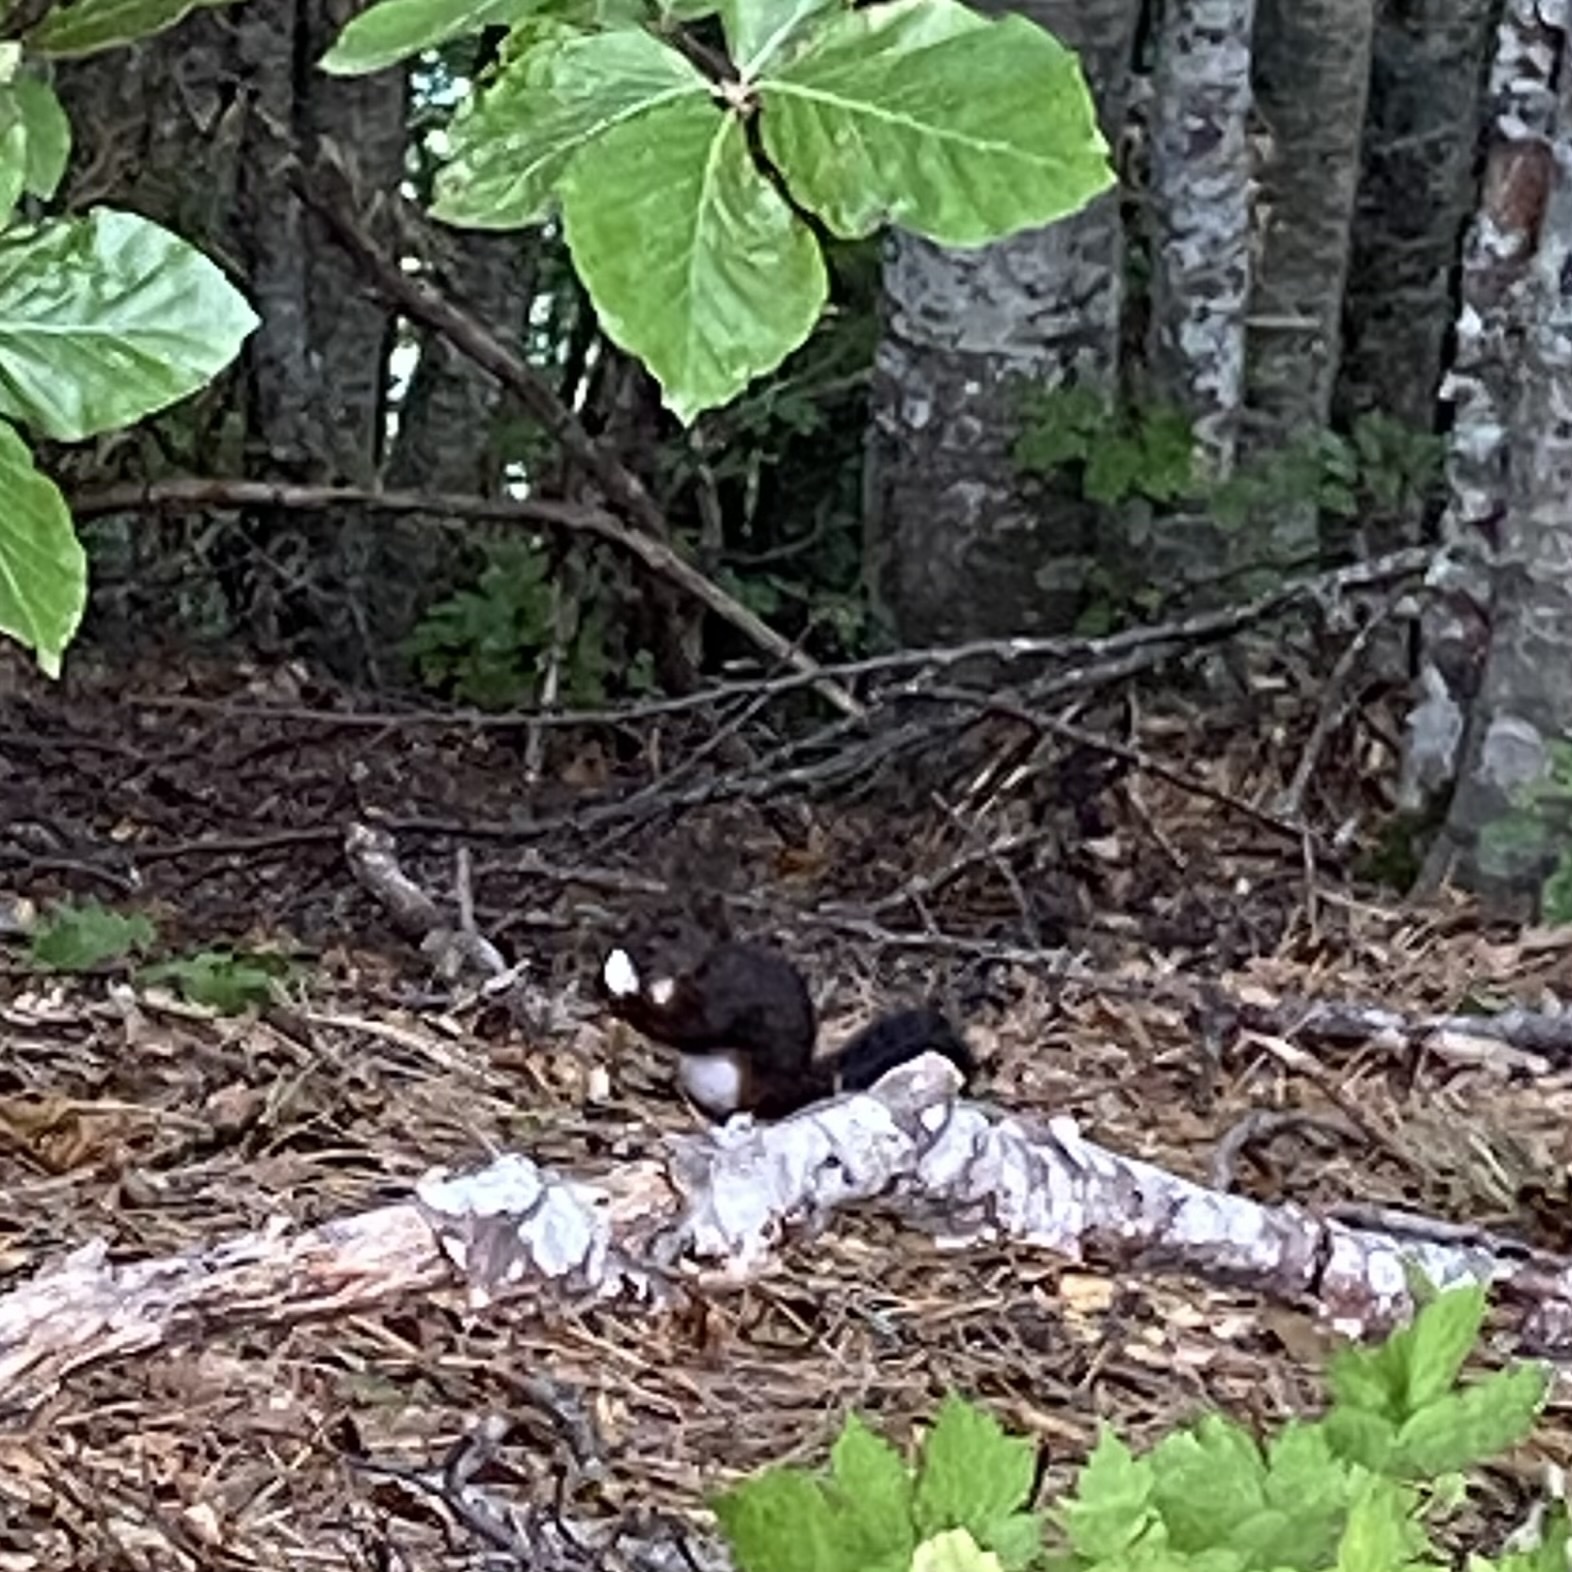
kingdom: Animalia
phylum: Chordata
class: Mammalia
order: Rodentia
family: Sciuridae
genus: Sciurus
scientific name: Sciurus vulgaris
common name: Eurasian red squirrel
